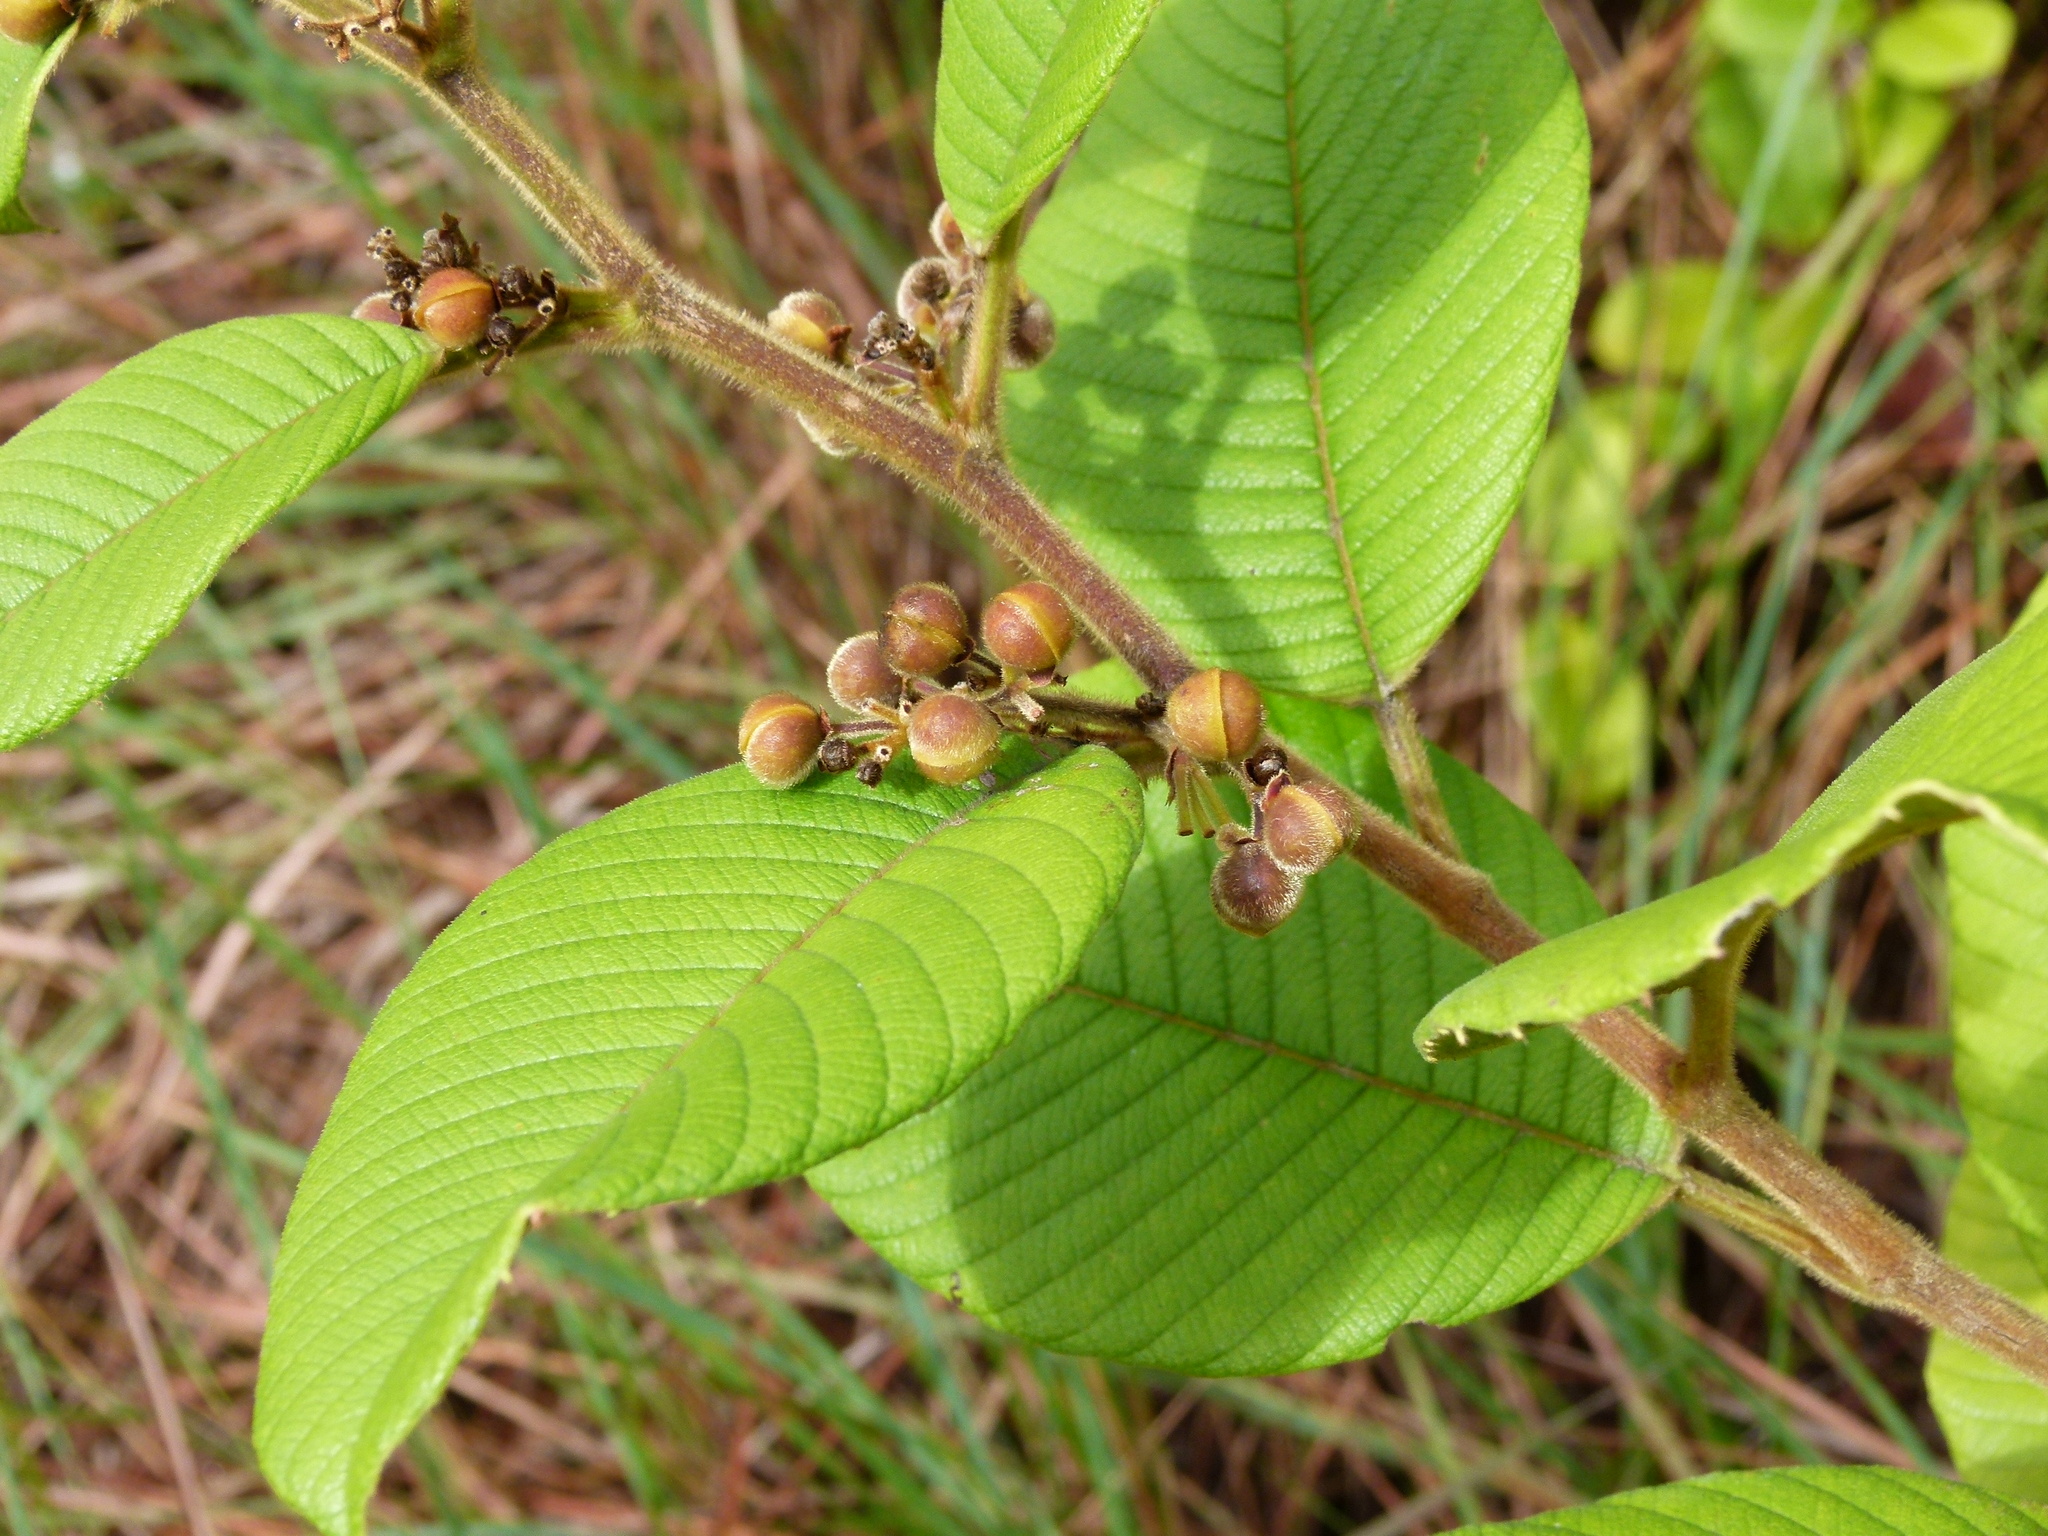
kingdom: Plantae
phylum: Tracheophyta
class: Magnoliopsida
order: Dilleniales
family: Dilleniaceae
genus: Davilla
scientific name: Davilla kunthii
